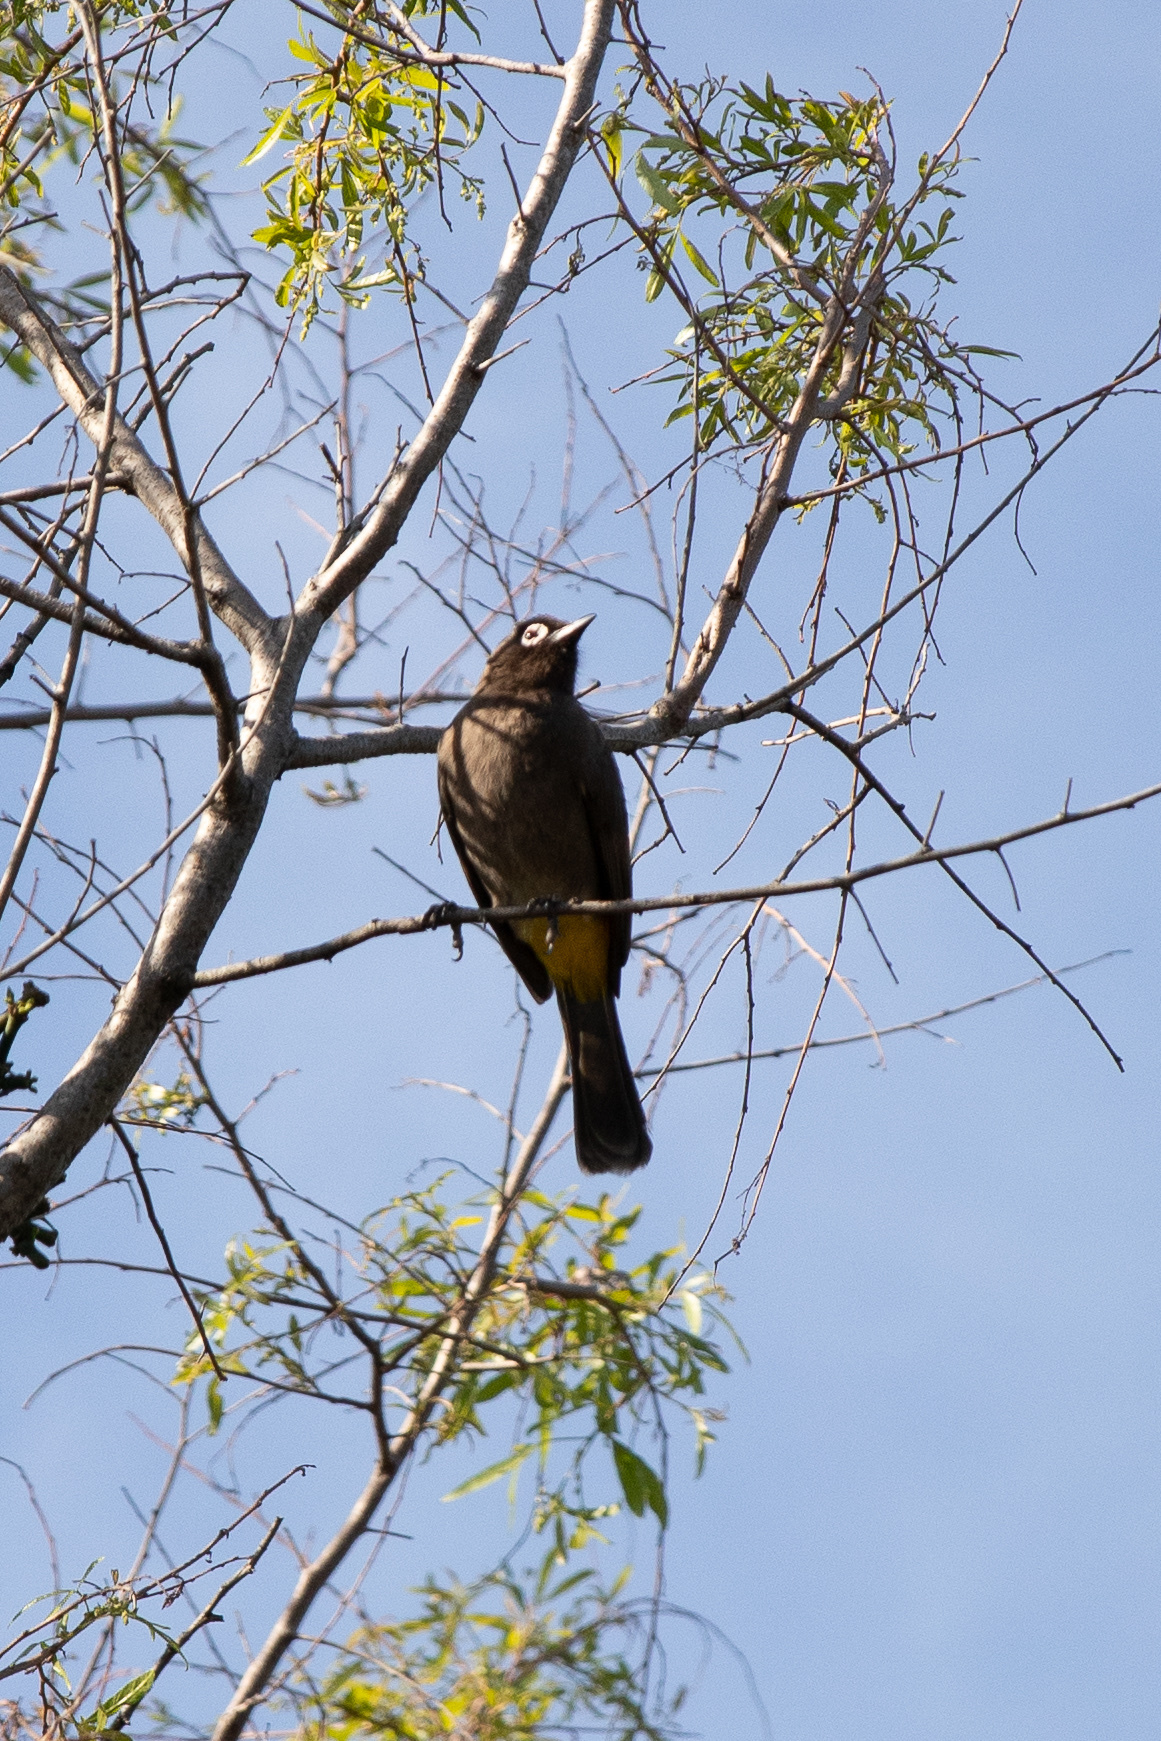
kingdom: Animalia
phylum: Chordata
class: Aves
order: Passeriformes
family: Pycnonotidae
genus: Pycnonotus
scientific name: Pycnonotus capensis
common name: Cape bulbul
